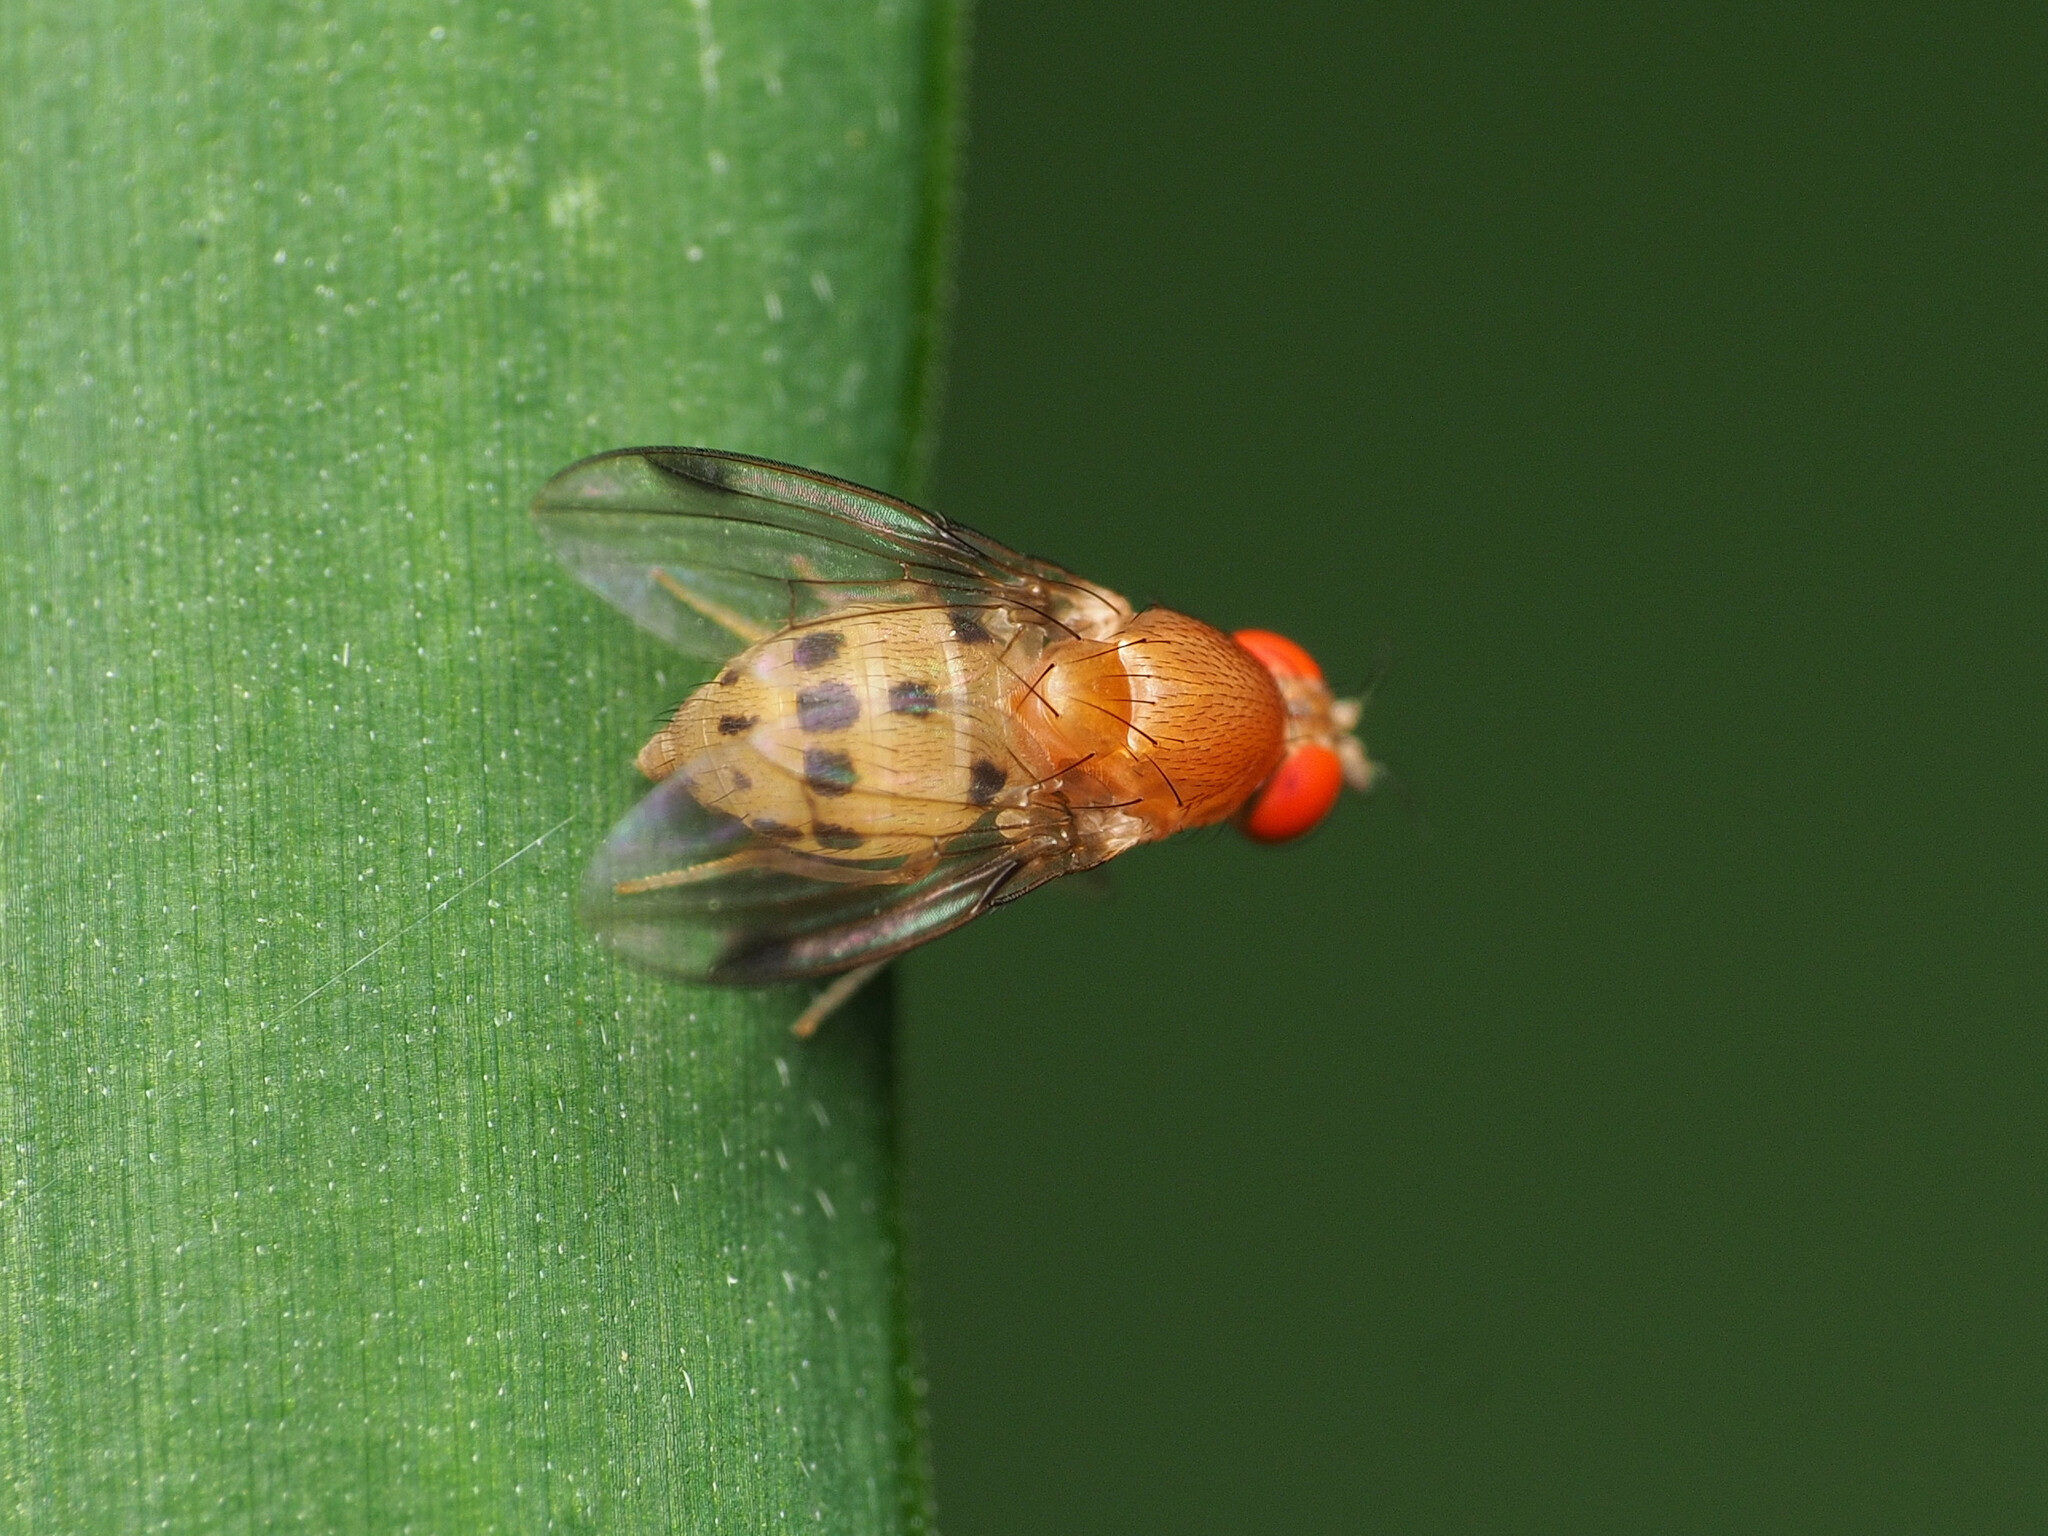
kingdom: Animalia
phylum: Arthropoda
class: Insecta
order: Diptera
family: Drosophilidae
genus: Leucophenga
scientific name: Leucophenga varia
